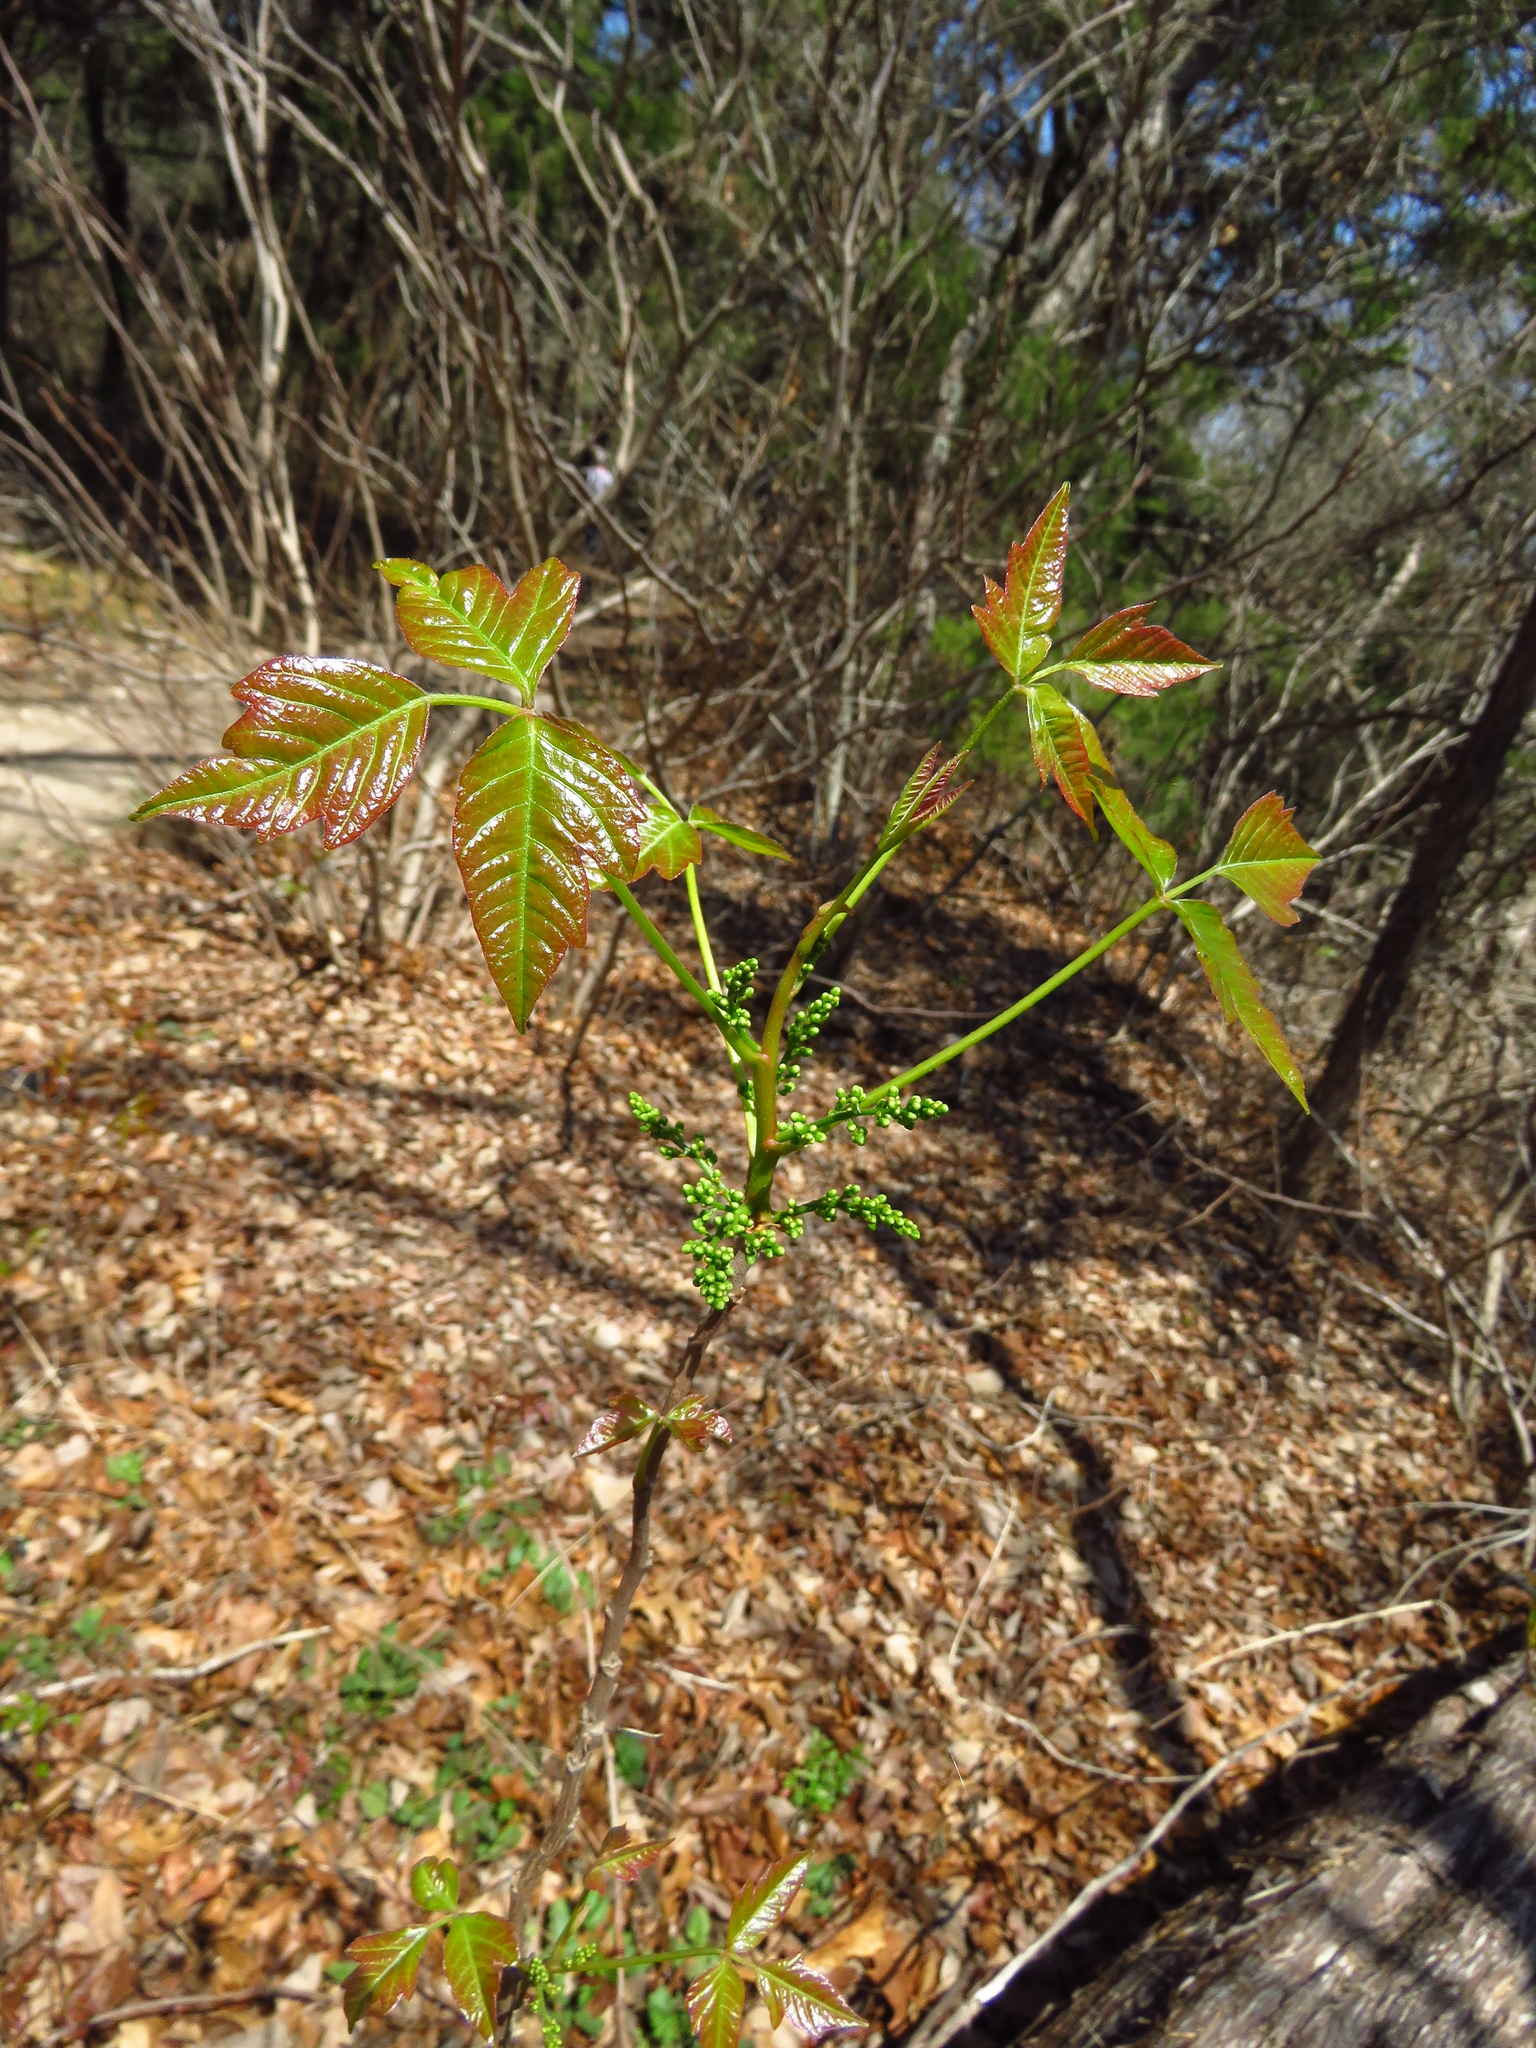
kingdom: Plantae
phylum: Tracheophyta
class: Magnoliopsida
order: Sapindales
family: Anacardiaceae
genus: Toxicodendron
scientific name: Toxicodendron radicans
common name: Poison ivy
